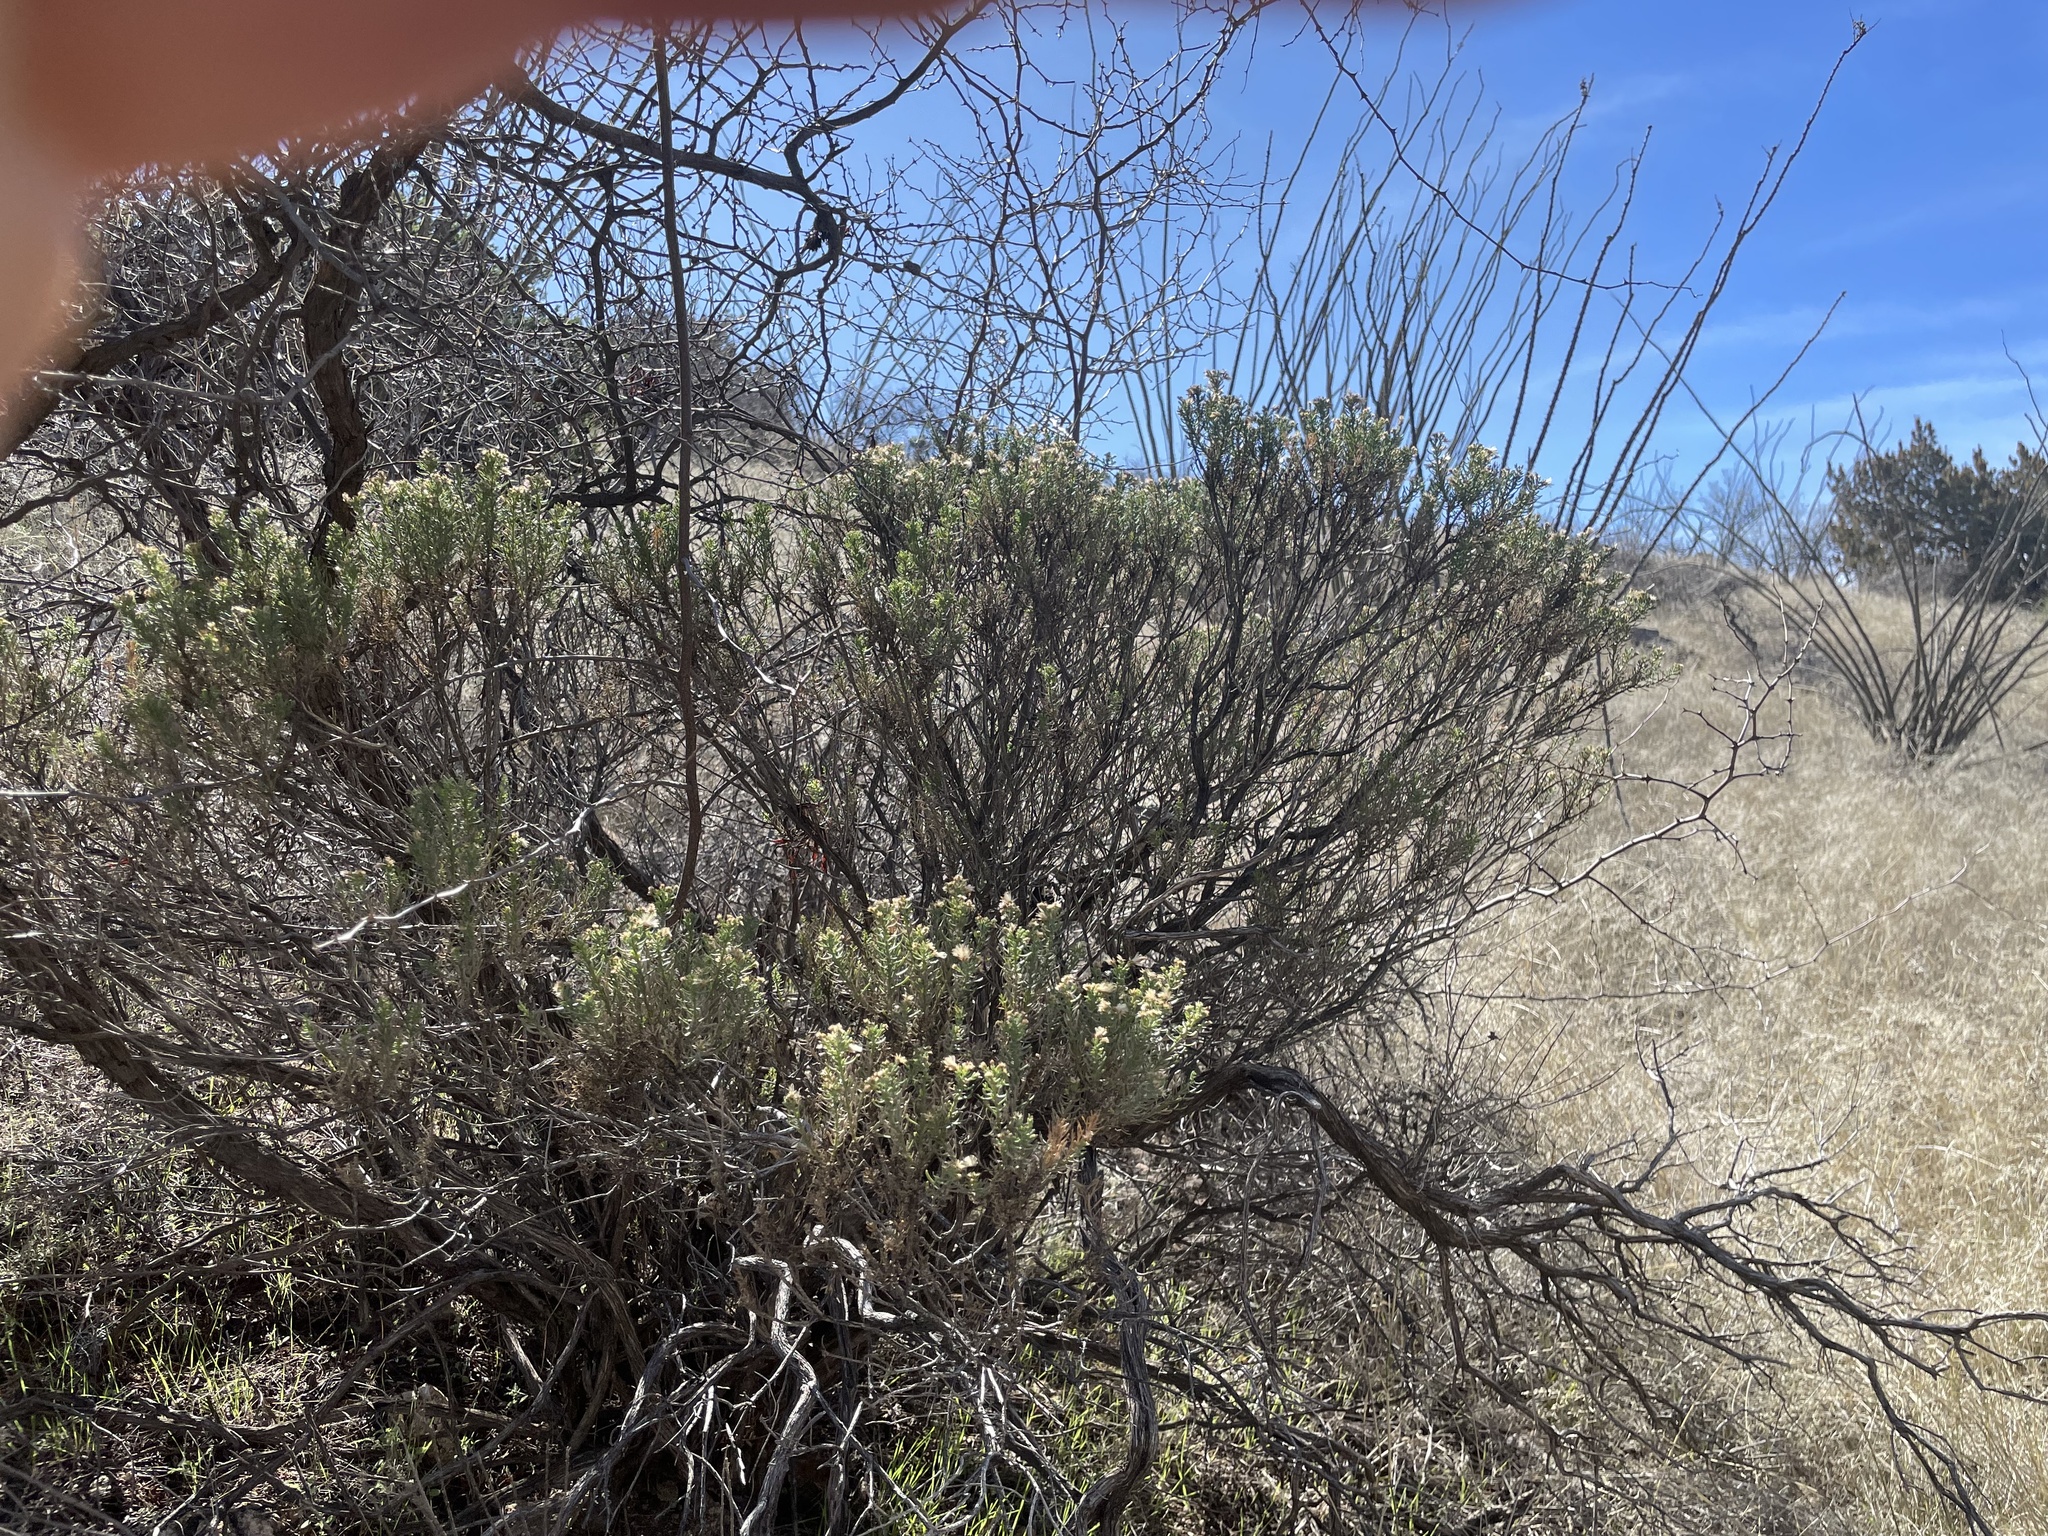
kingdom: Plantae
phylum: Tracheophyta
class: Magnoliopsida
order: Asterales
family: Asteraceae
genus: Ericameria
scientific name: Ericameria laricifolia
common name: Turpentine-bush
